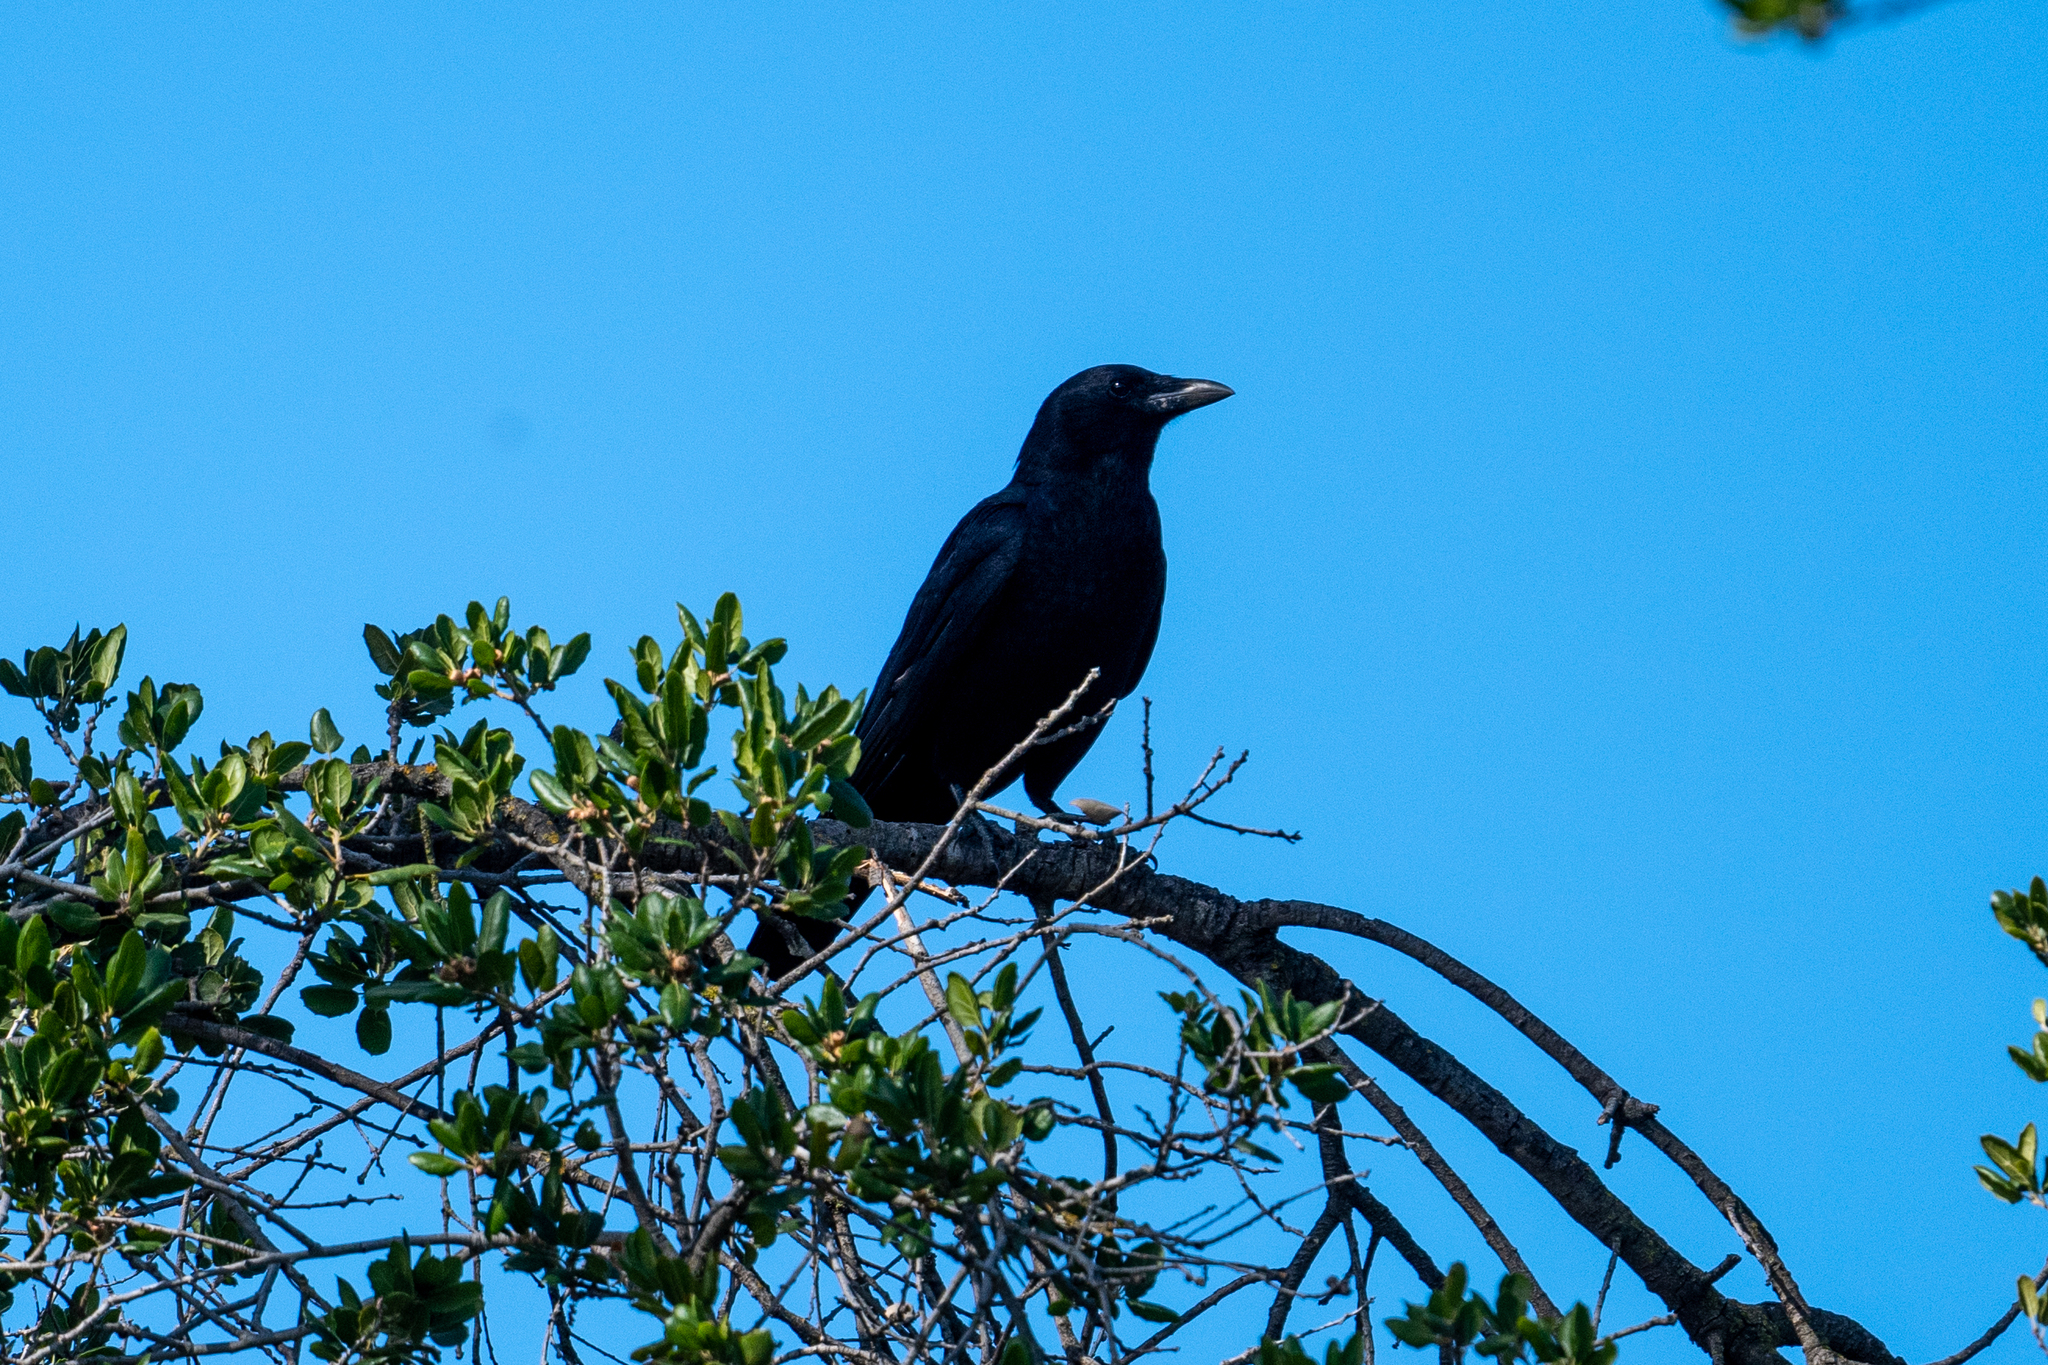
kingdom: Animalia
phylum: Chordata
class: Aves
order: Passeriformes
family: Corvidae
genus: Corvus
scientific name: Corvus brachyrhynchos
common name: American crow
